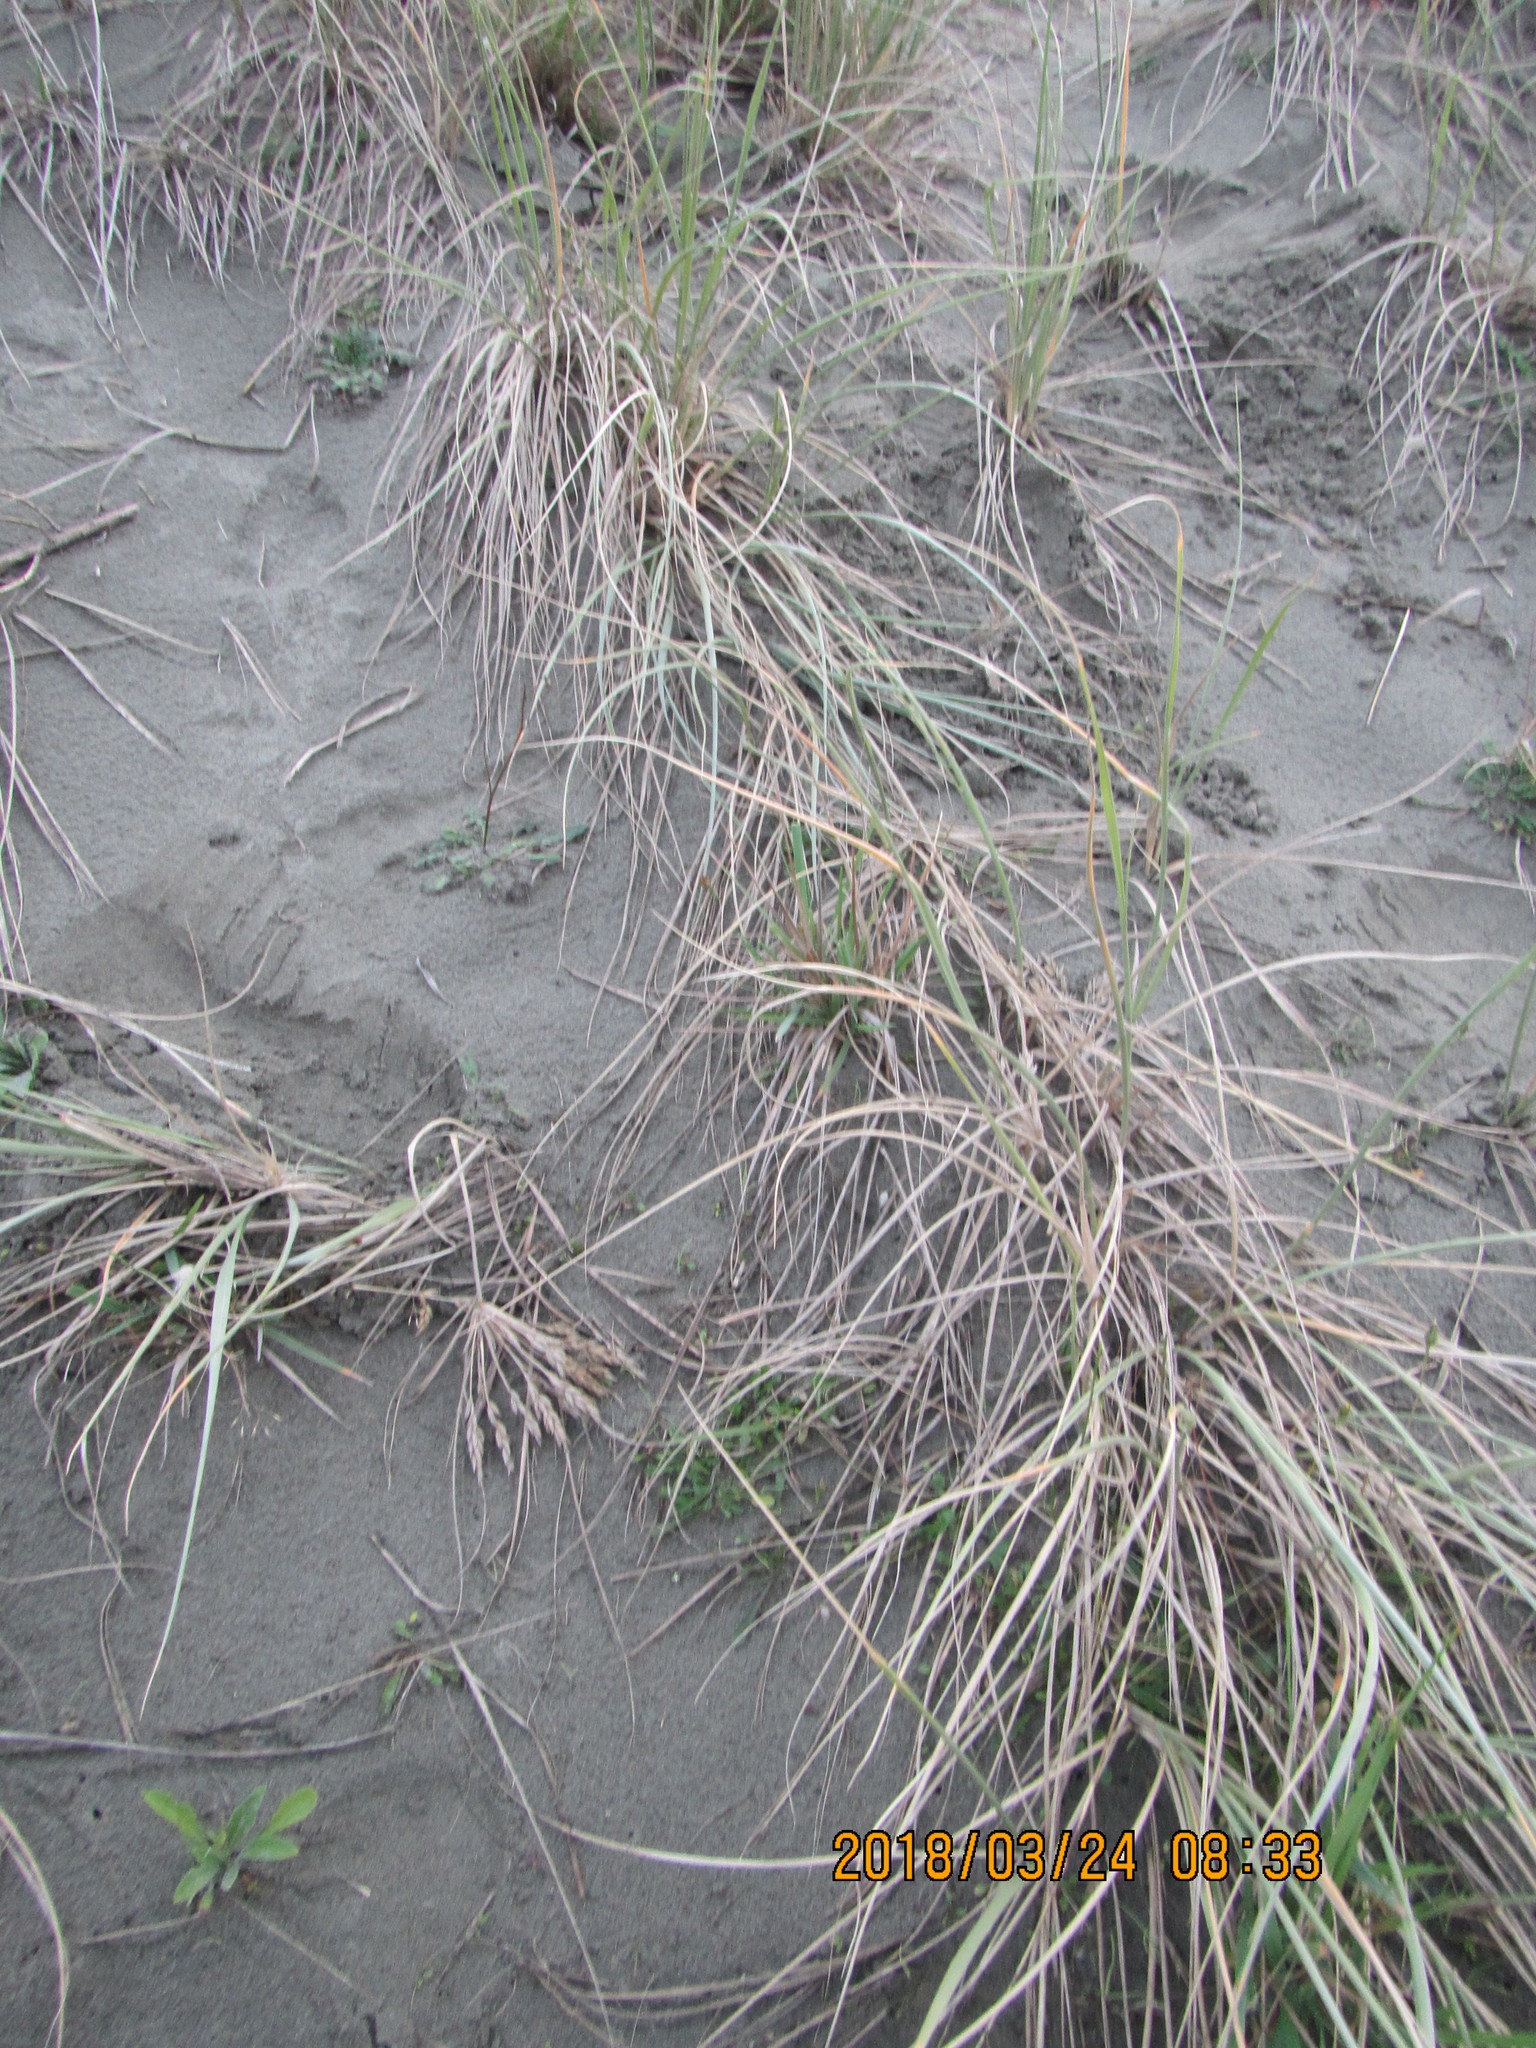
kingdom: Plantae
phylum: Tracheophyta
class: Liliopsida
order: Poales
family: Poaceae
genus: Spinifex
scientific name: Spinifex sericeus
